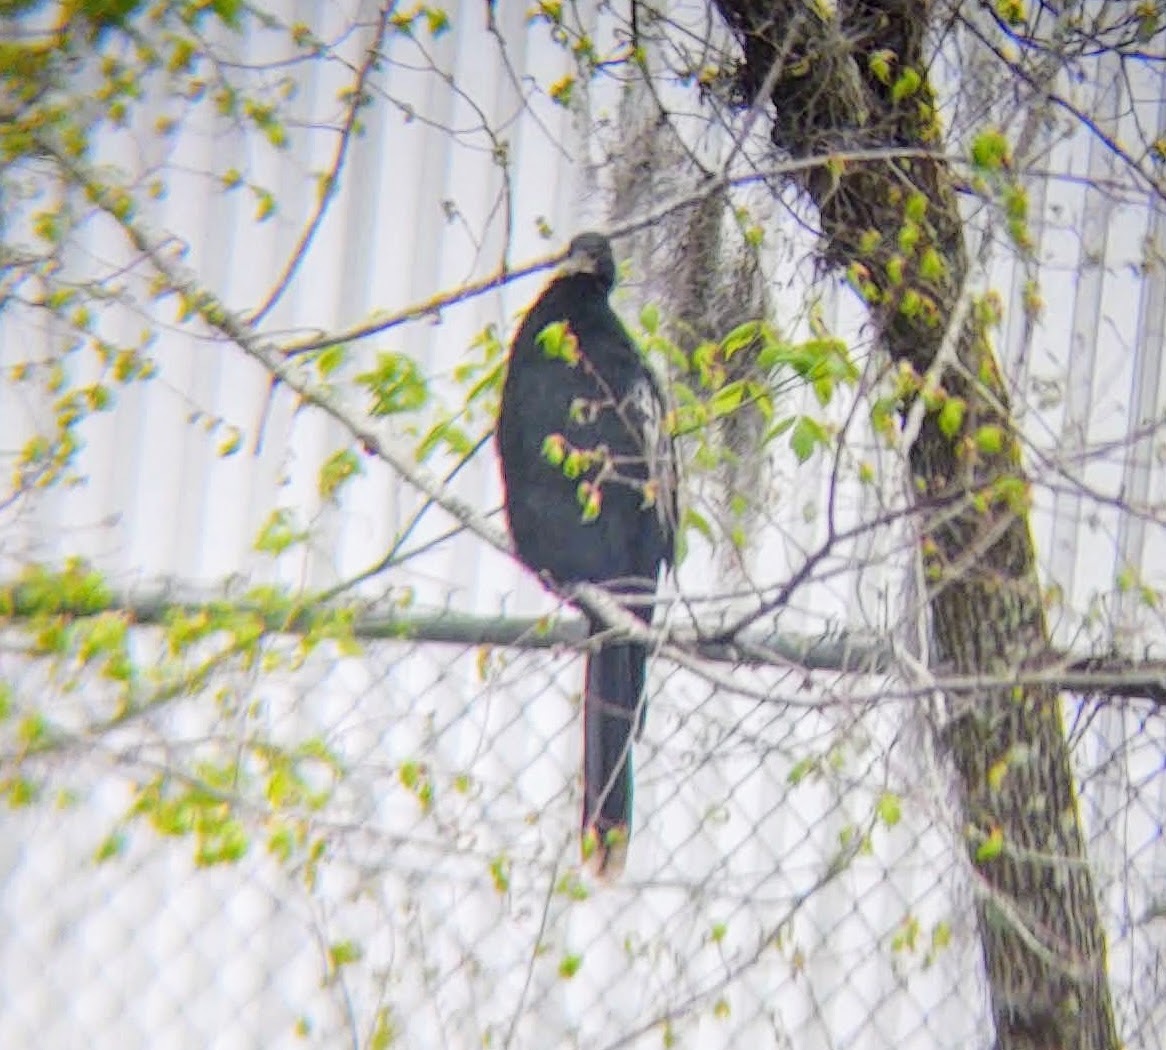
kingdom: Animalia
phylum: Chordata
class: Aves
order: Suliformes
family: Anhingidae
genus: Anhinga
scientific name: Anhinga anhinga
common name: Anhinga
